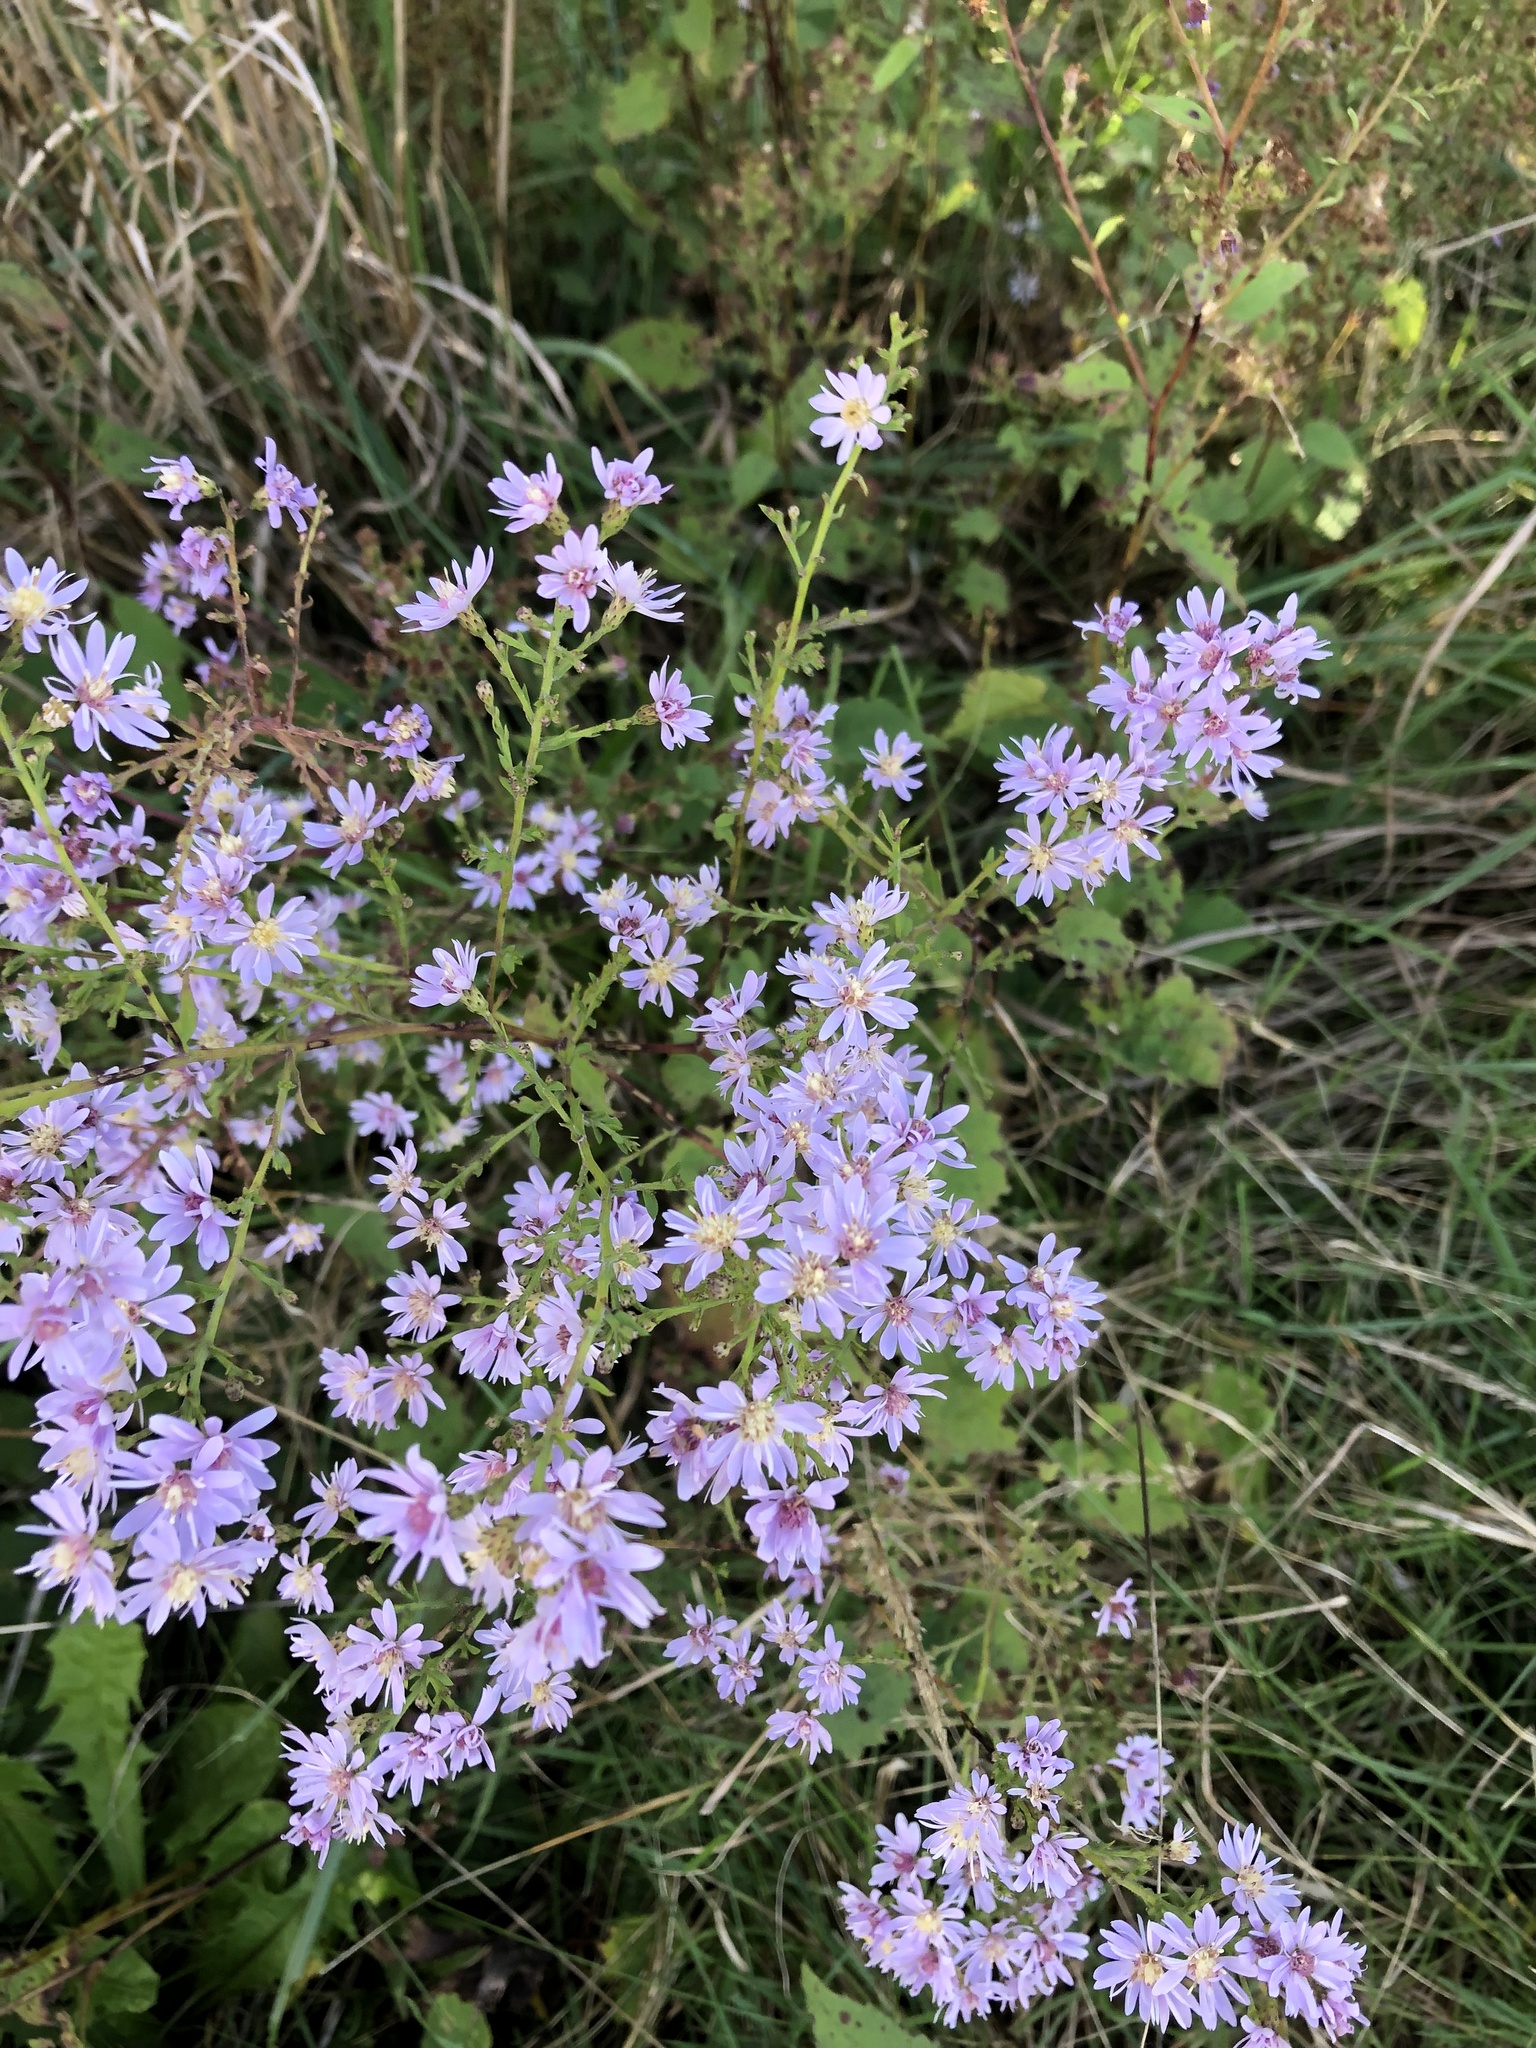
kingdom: Plantae
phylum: Tracheophyta
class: Magnoliopsida
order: Asterales
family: Asteraceae
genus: Symphyotrichum
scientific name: Symphyotrichum cordifolium
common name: Beeweed
